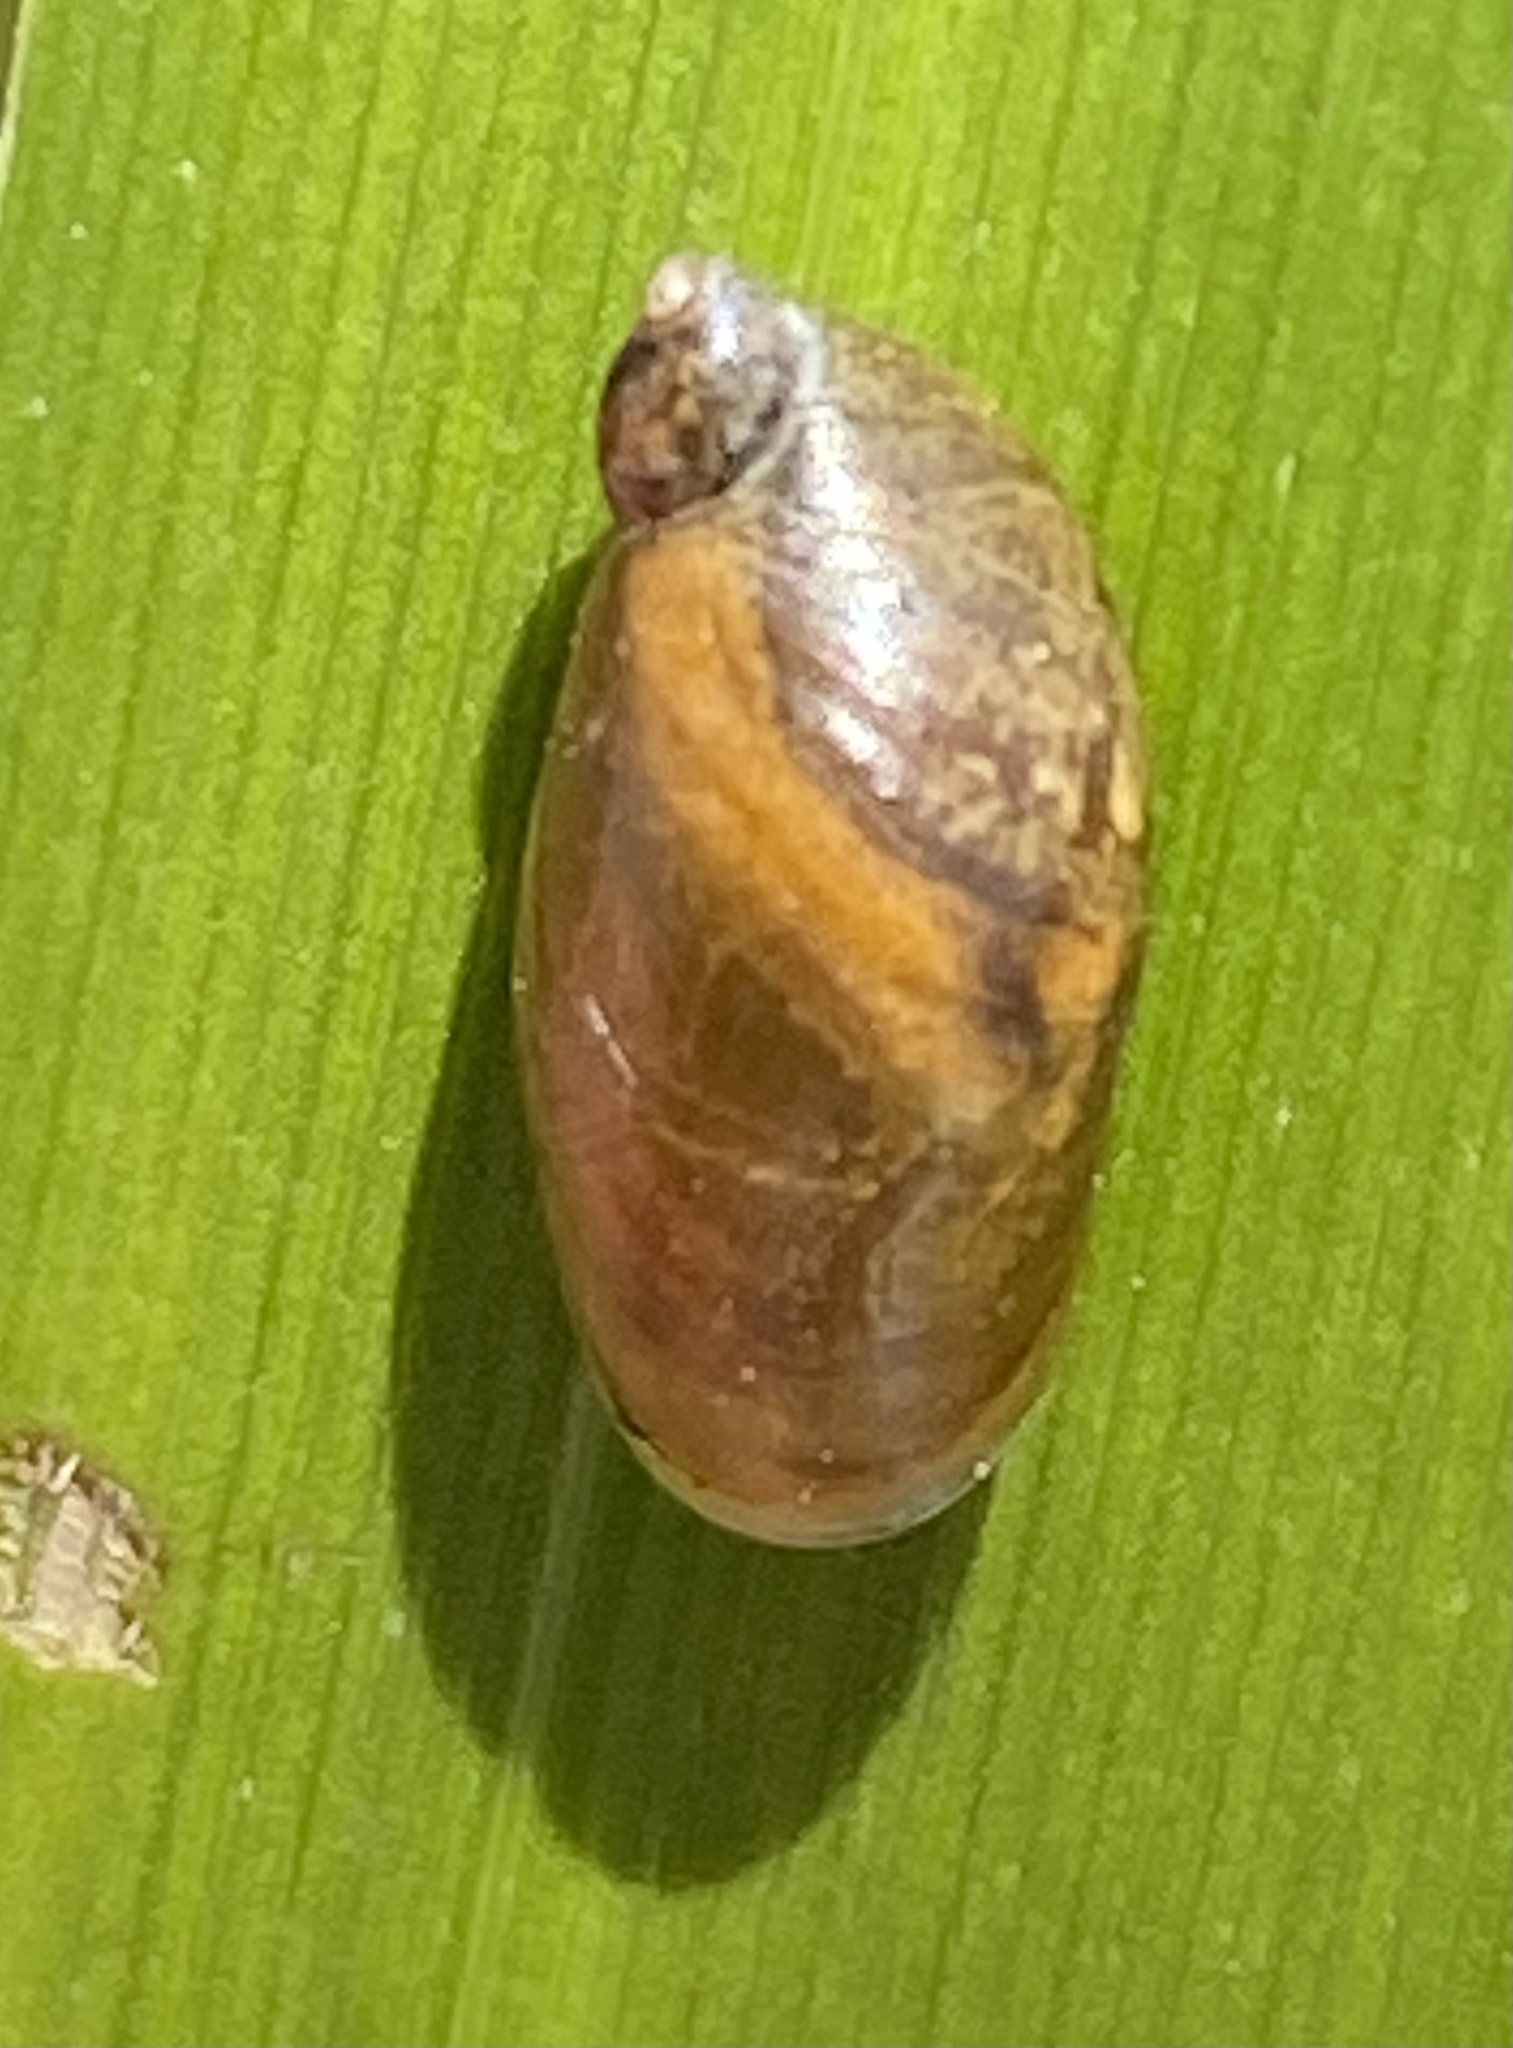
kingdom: Animalia
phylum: Mollusca
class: Gastropoda
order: Stylommatophora
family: Succineidae
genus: Succinea
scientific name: Succinea putris
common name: European ambersnail
